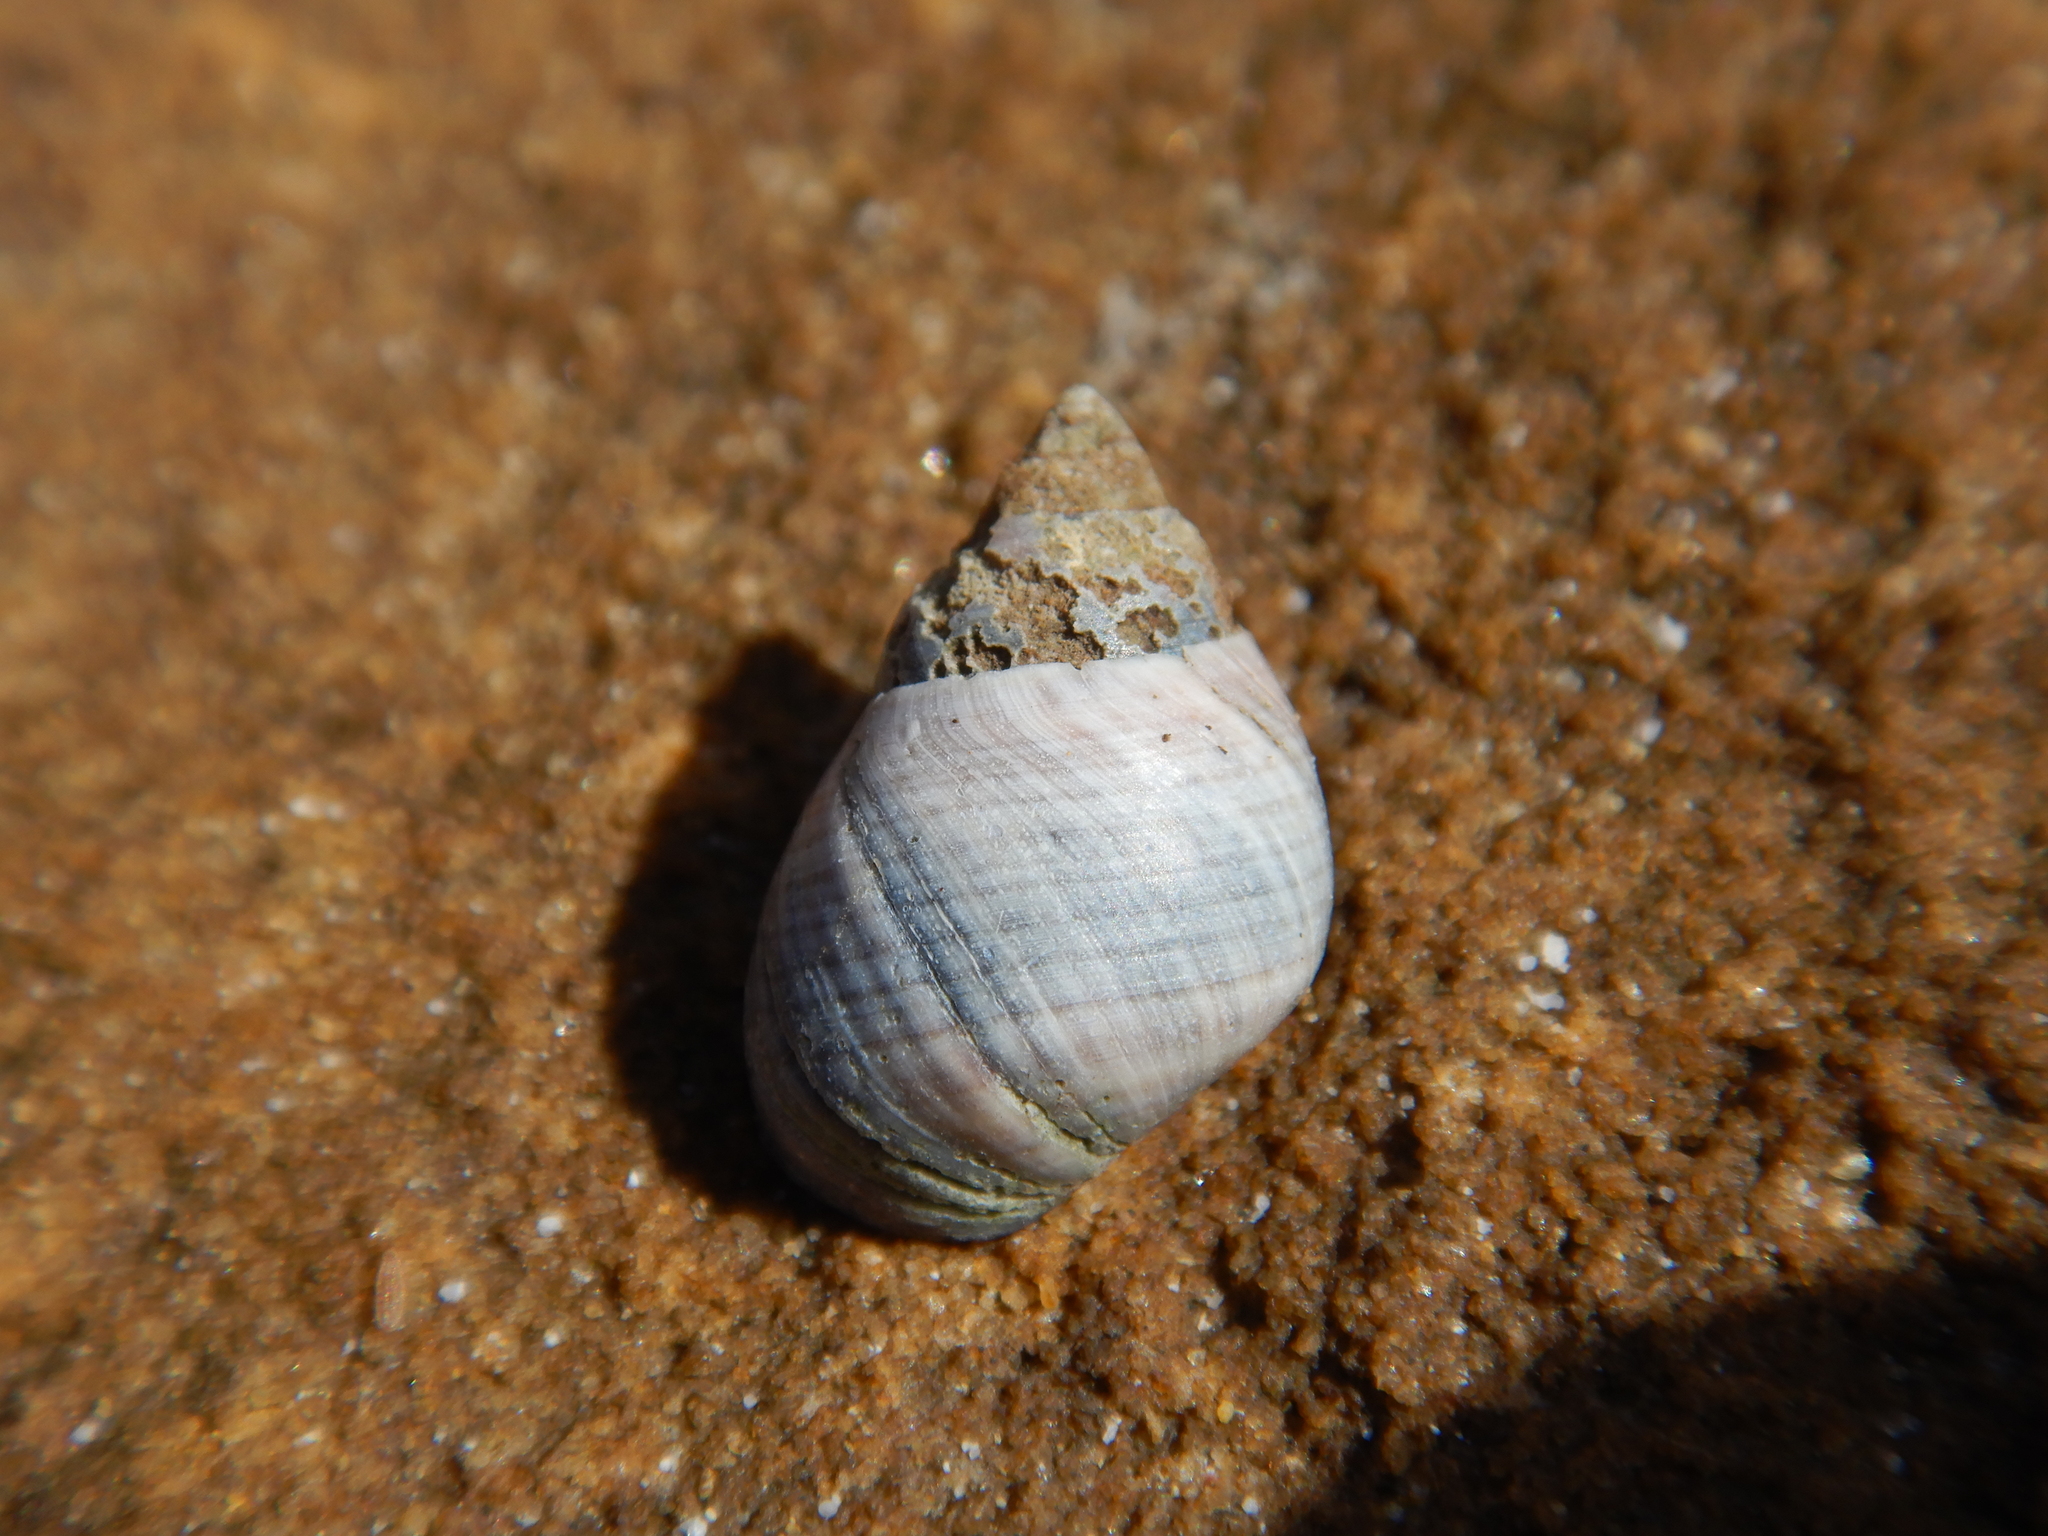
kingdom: Animalia
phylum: Mollusca
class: Gastropoda
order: Littorinimorpha
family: Littorinidae
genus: Austrolittorina
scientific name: Austrolittorina unifasciata
